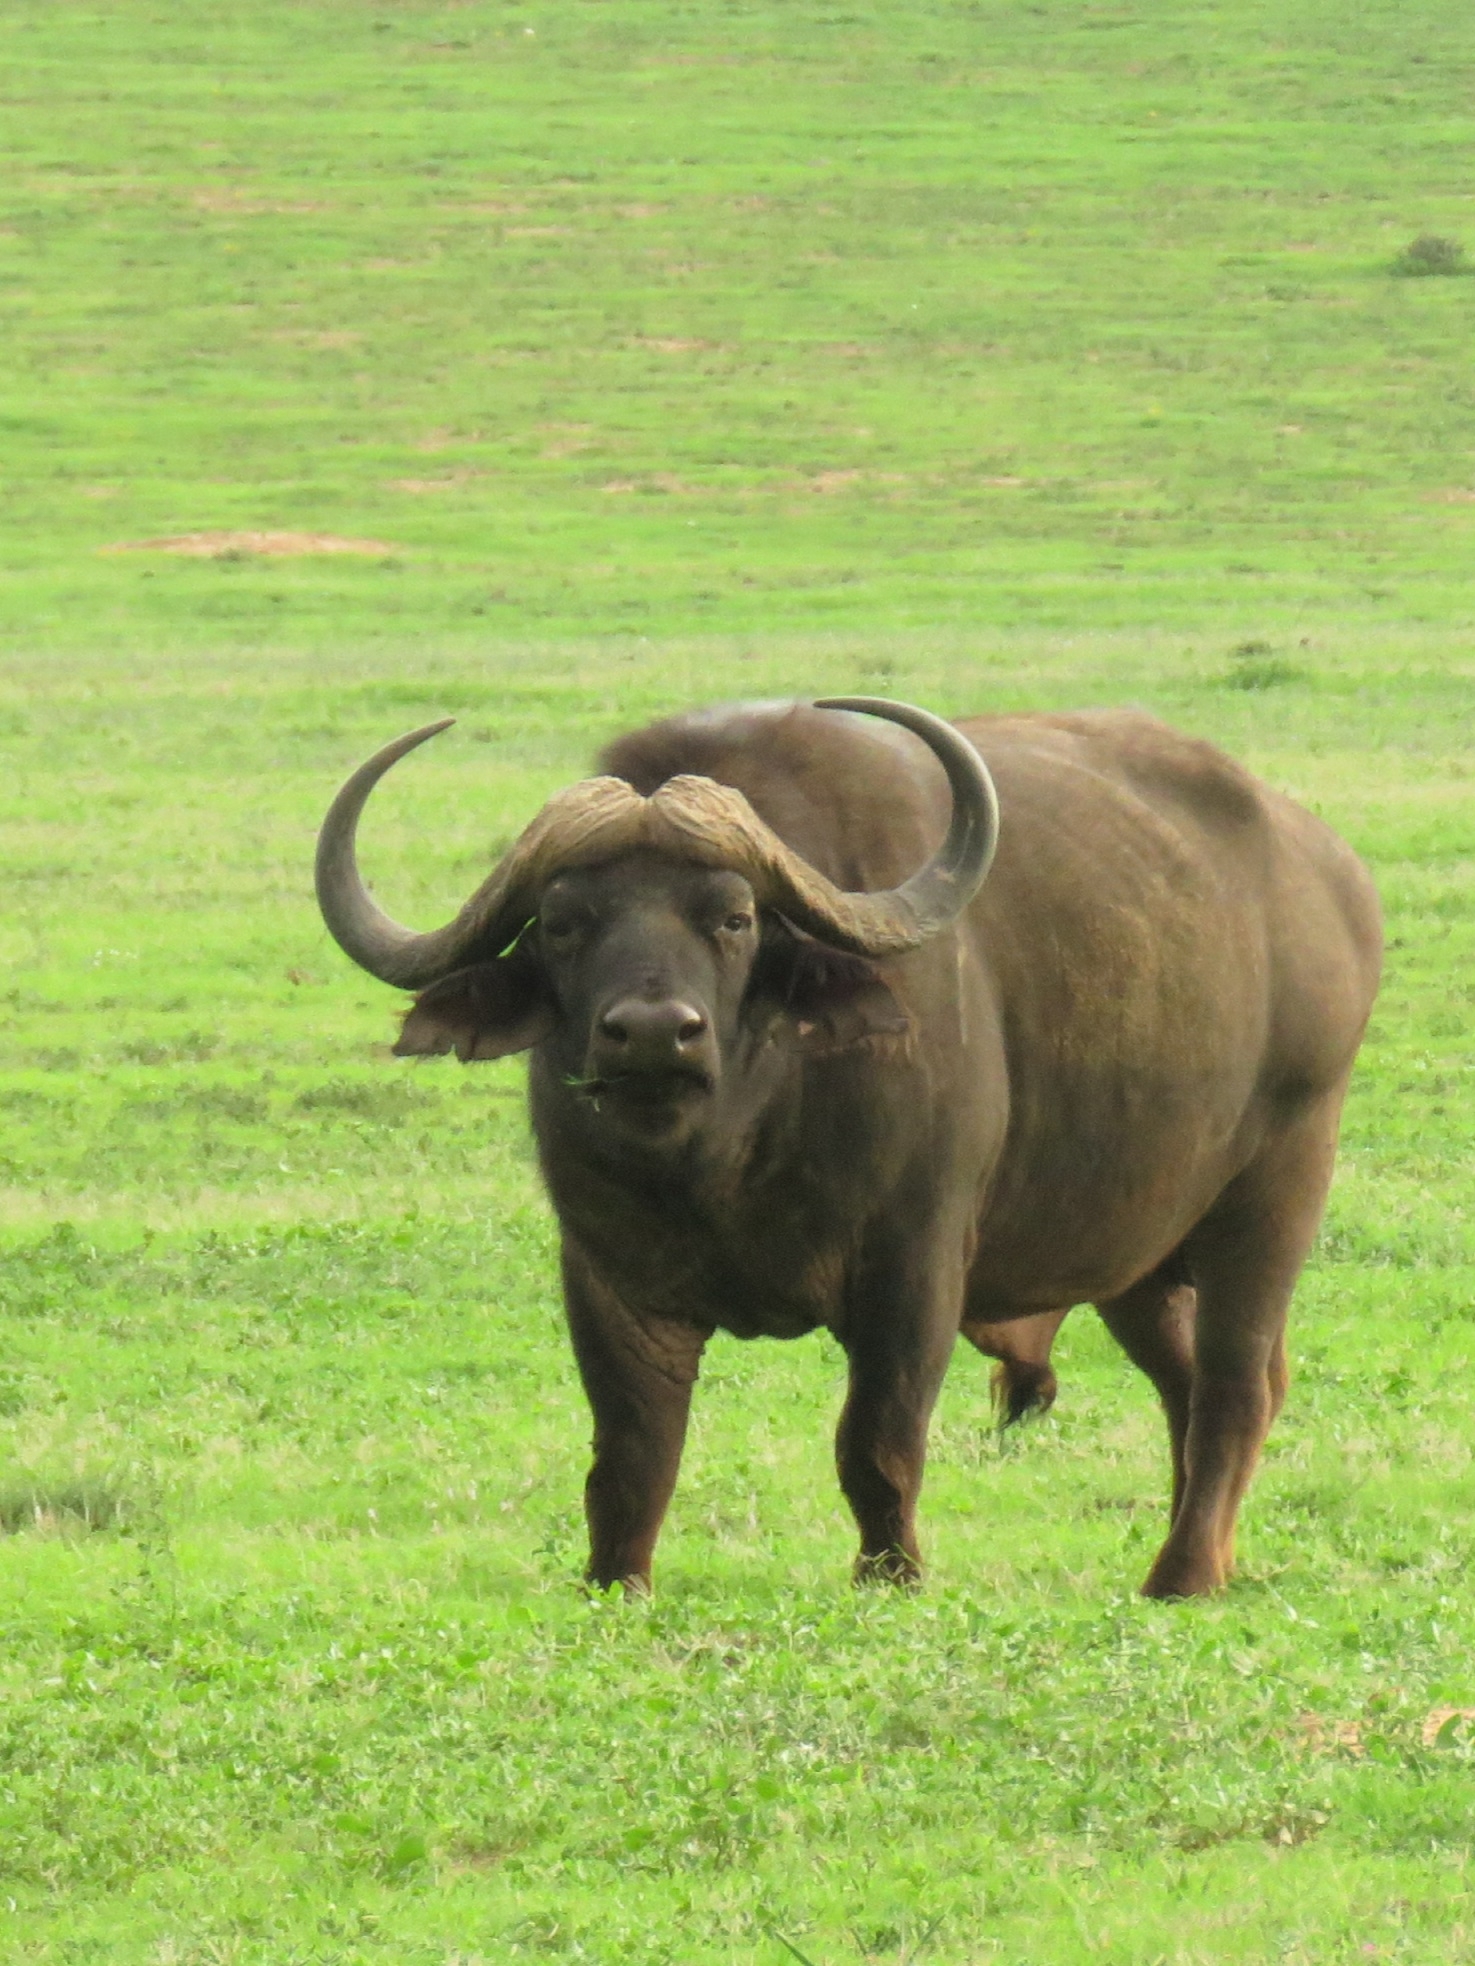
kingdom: Animalia
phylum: Chordata
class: Mammalia
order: Artiodactyla
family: Bovidae
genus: Syncerus
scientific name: Syncerus caffer
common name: African buffalo
